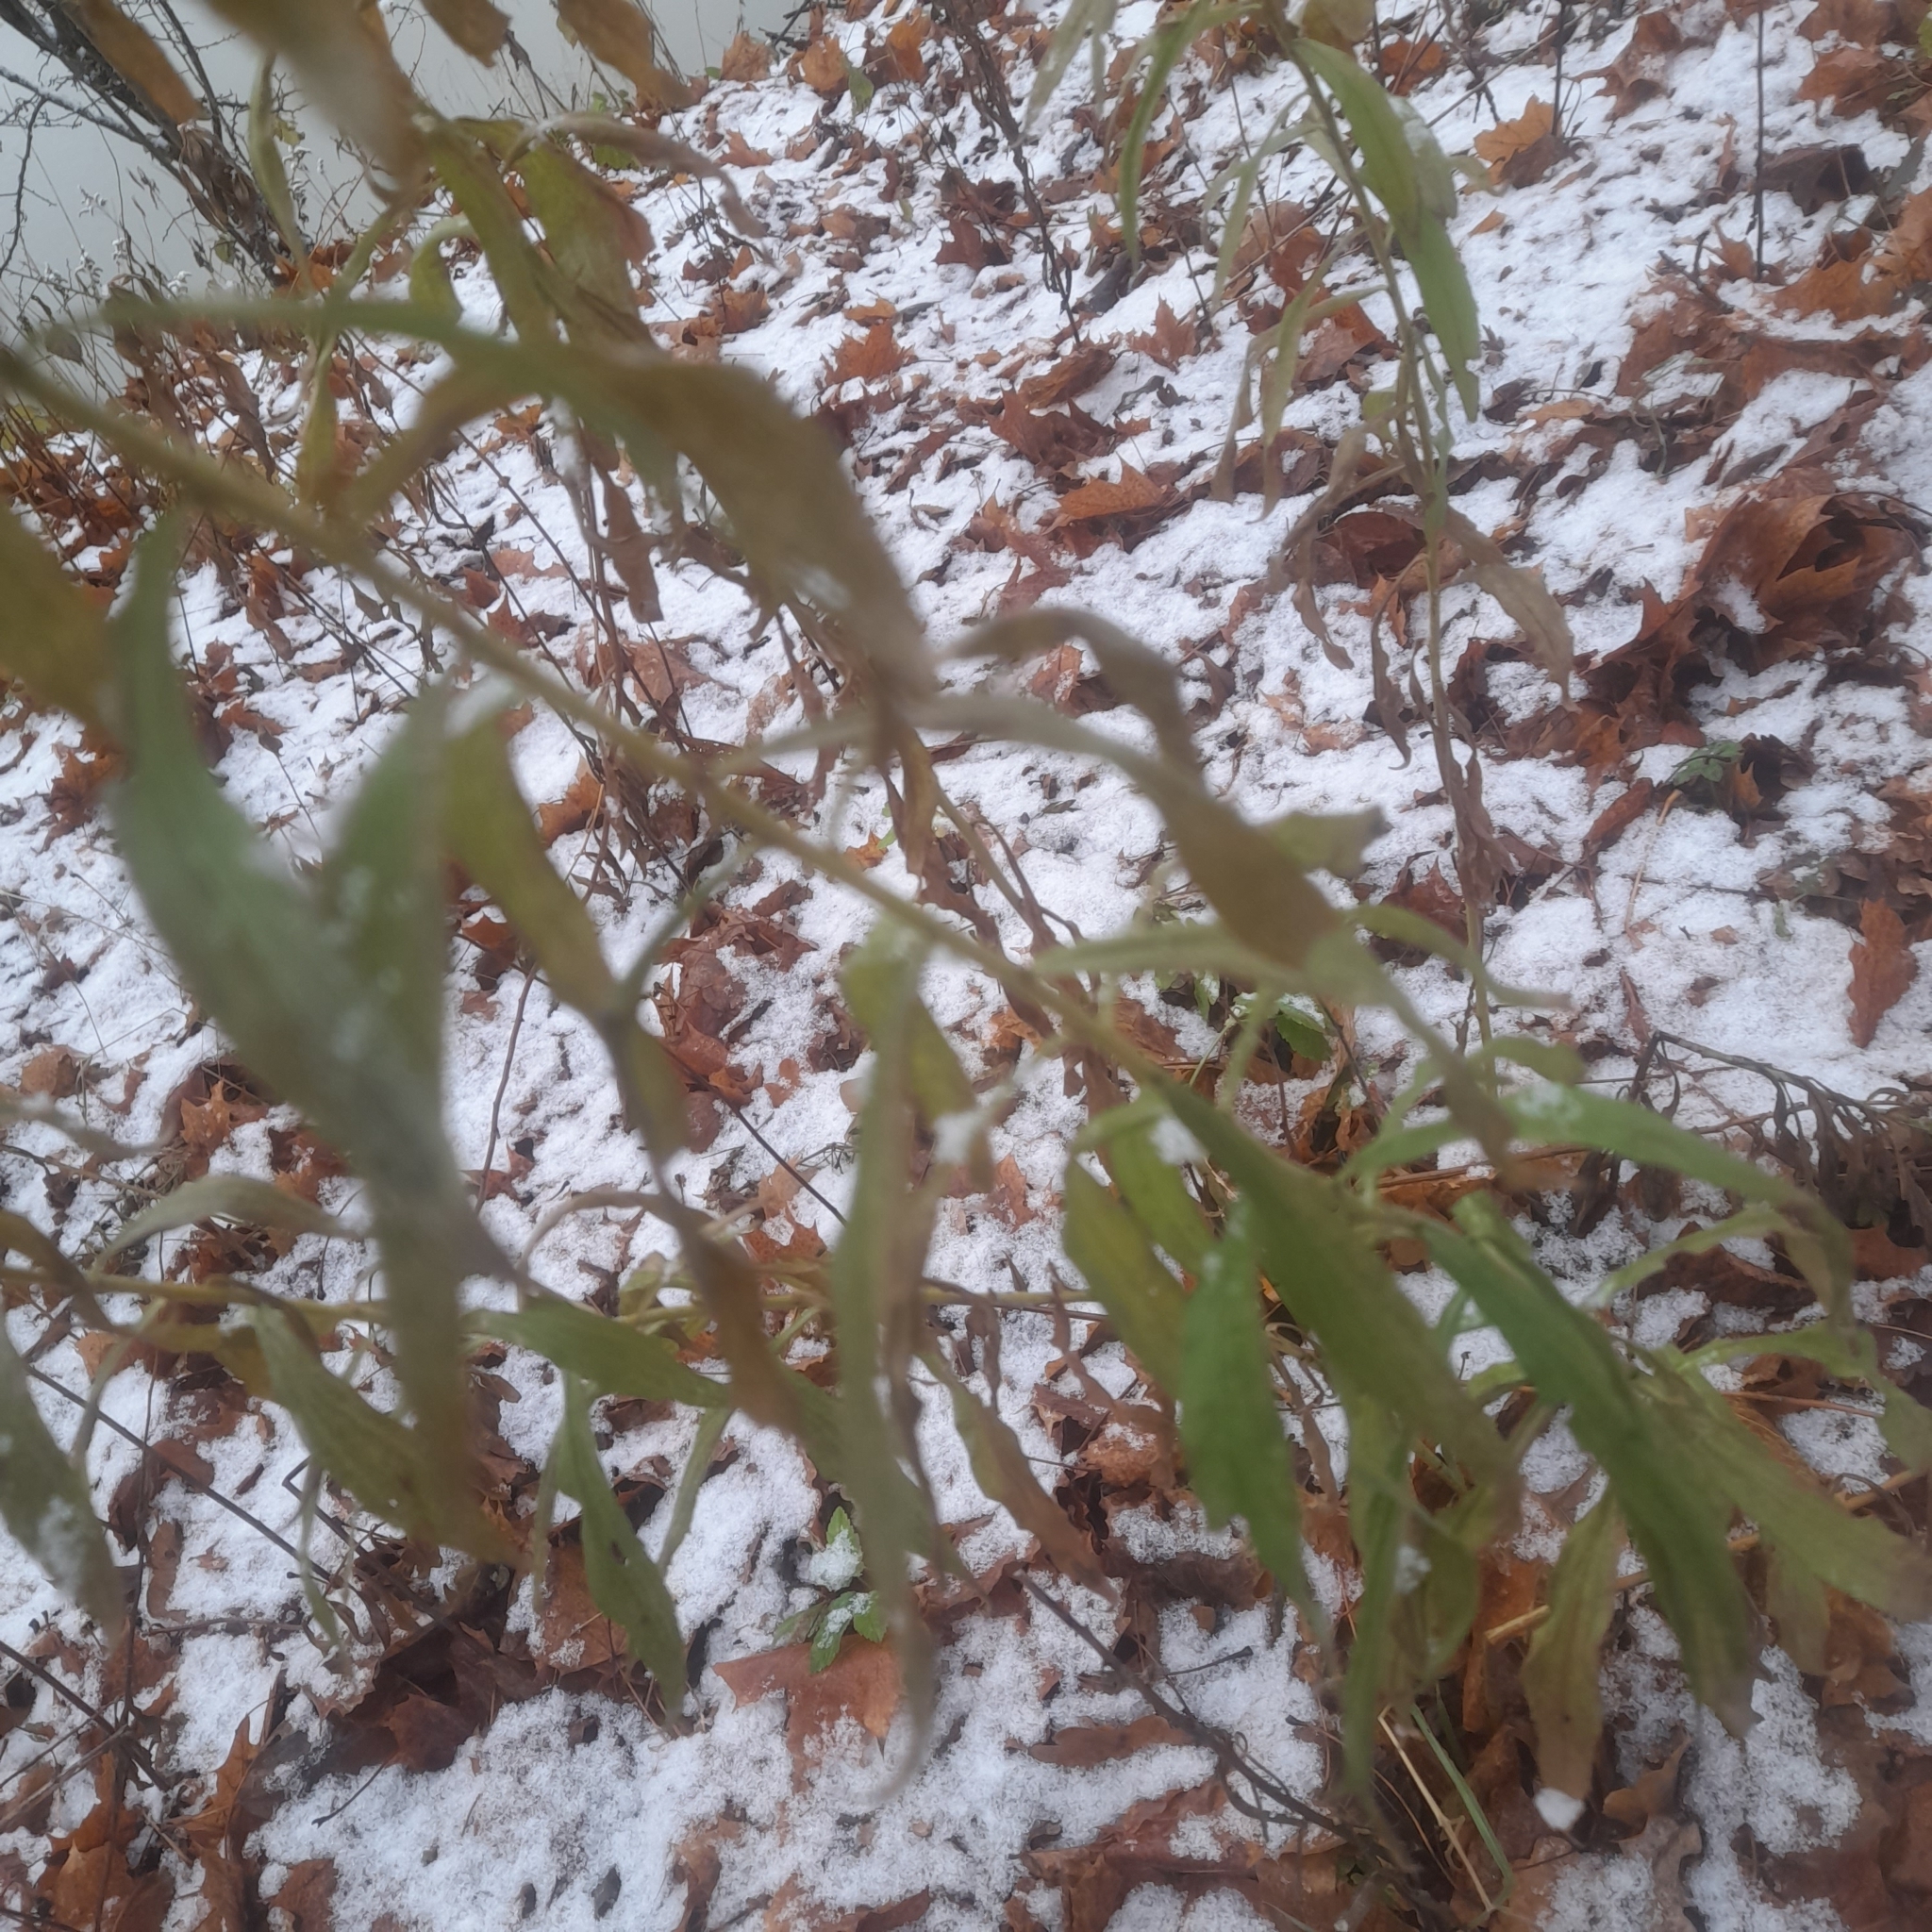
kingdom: Plantae
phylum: Tracheophyta
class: Magnoliopsida
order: Asterales
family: Asteraceae
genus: Solidago
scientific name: Solidago canadensis
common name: Canada goldenrod
